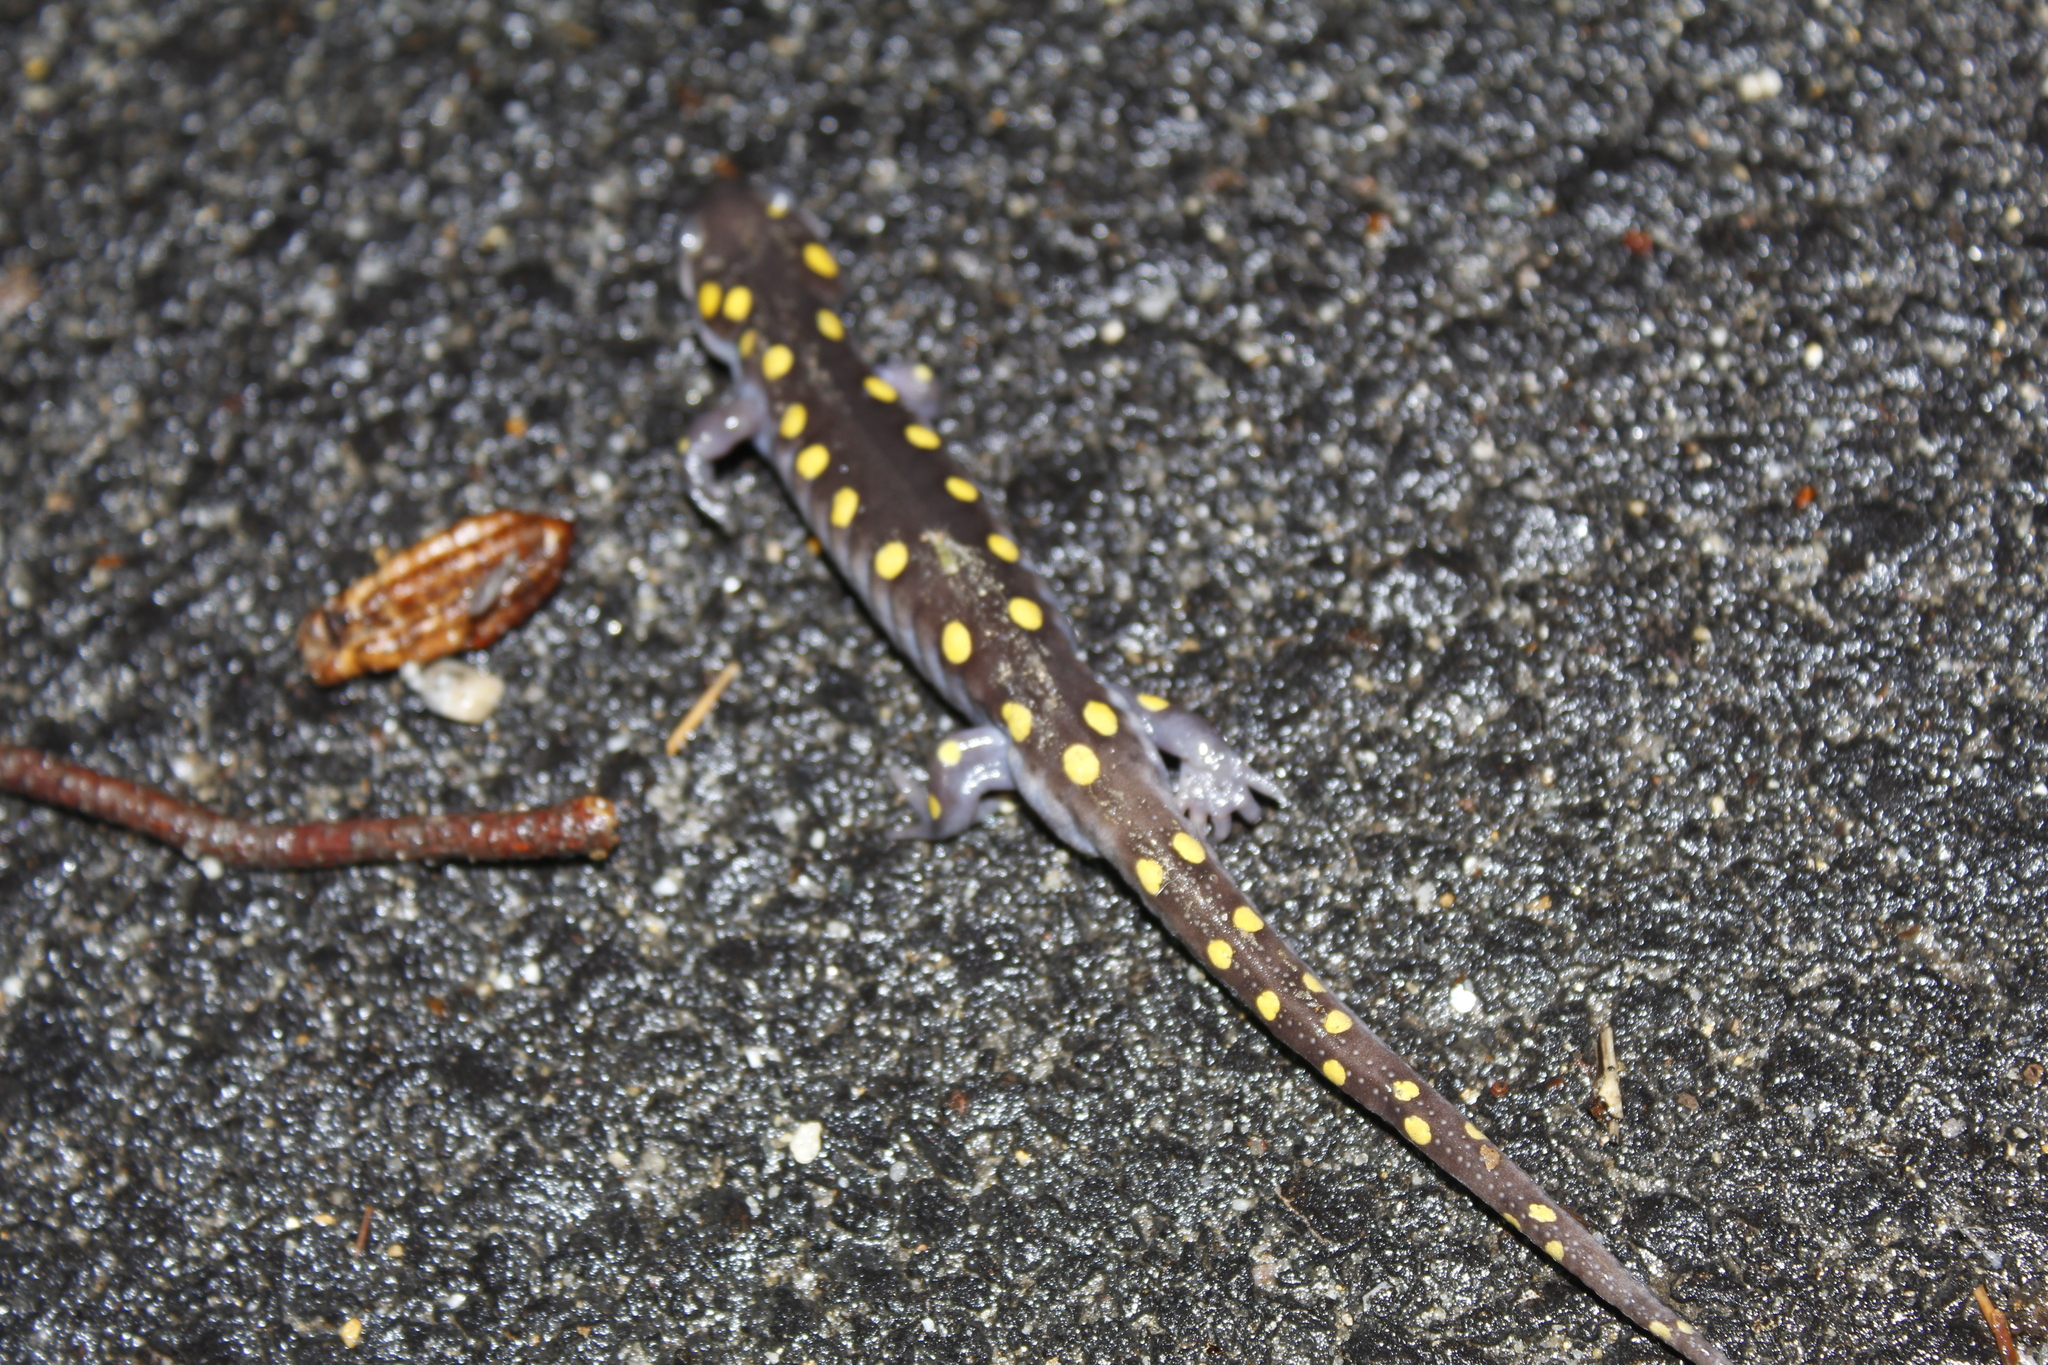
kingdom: Animalia
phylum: Chordata
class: Amphibia
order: Caudata
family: Ambystomatidae
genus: Ambystoma
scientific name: Ambystoma maculatum
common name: Spotted salamander
